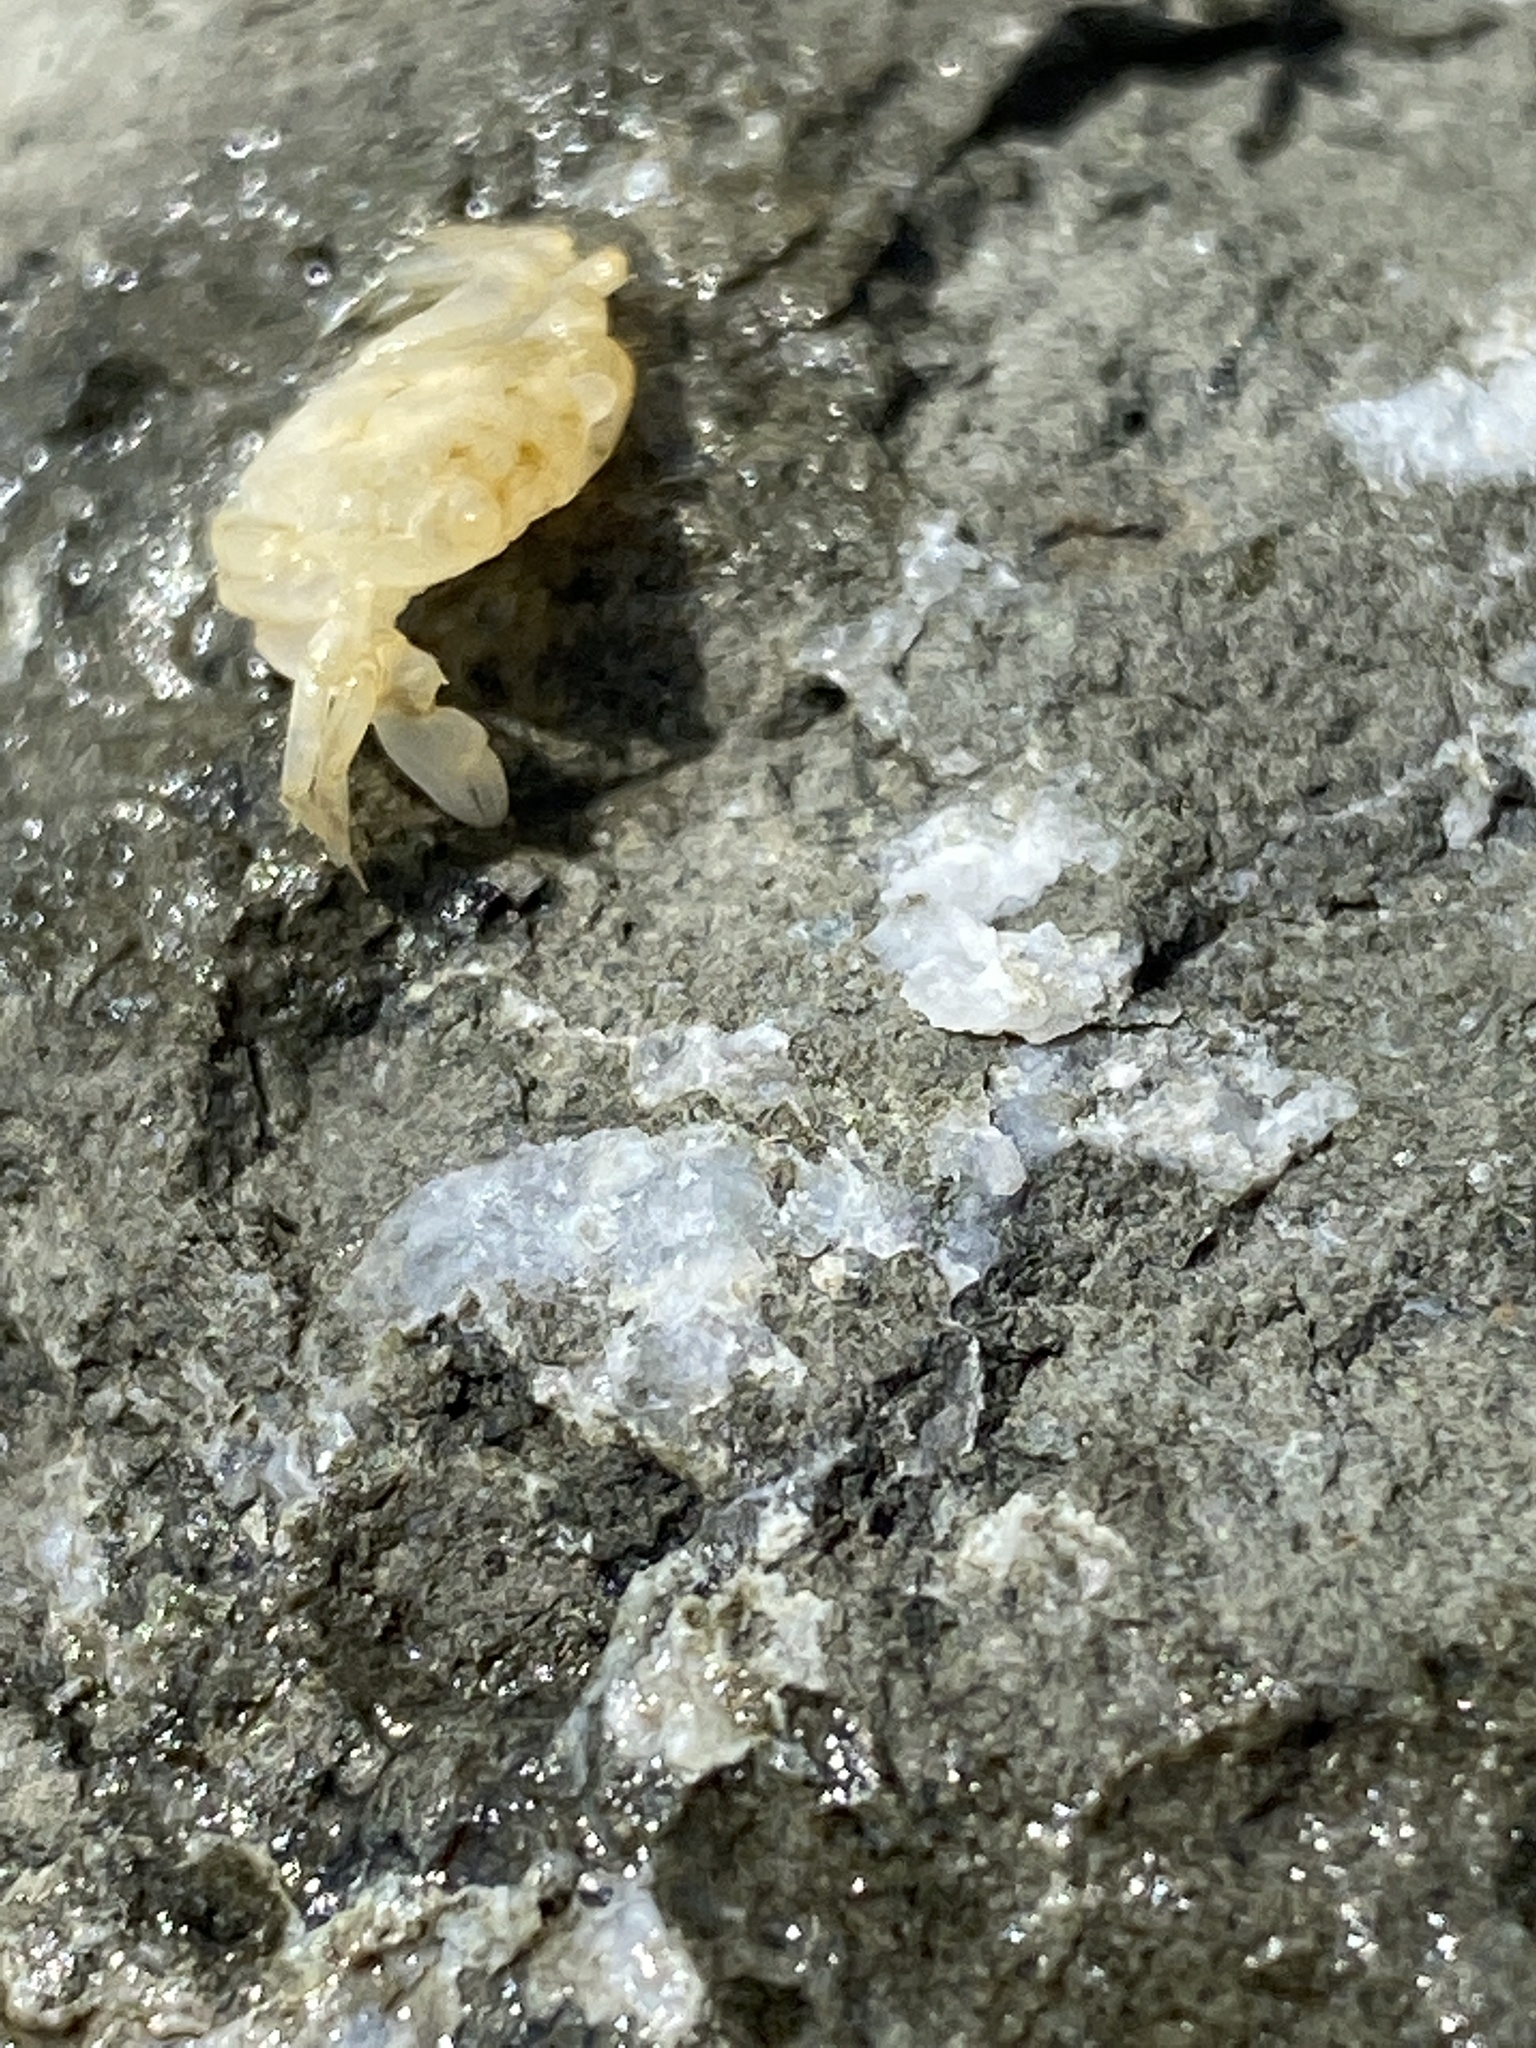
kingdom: Animalia
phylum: Arthropoda
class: Malacostraca
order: Decapoda
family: Varunidae
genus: Hemigrapsus
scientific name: Hemigrapsus oregonensis
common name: Yellow shore crab
